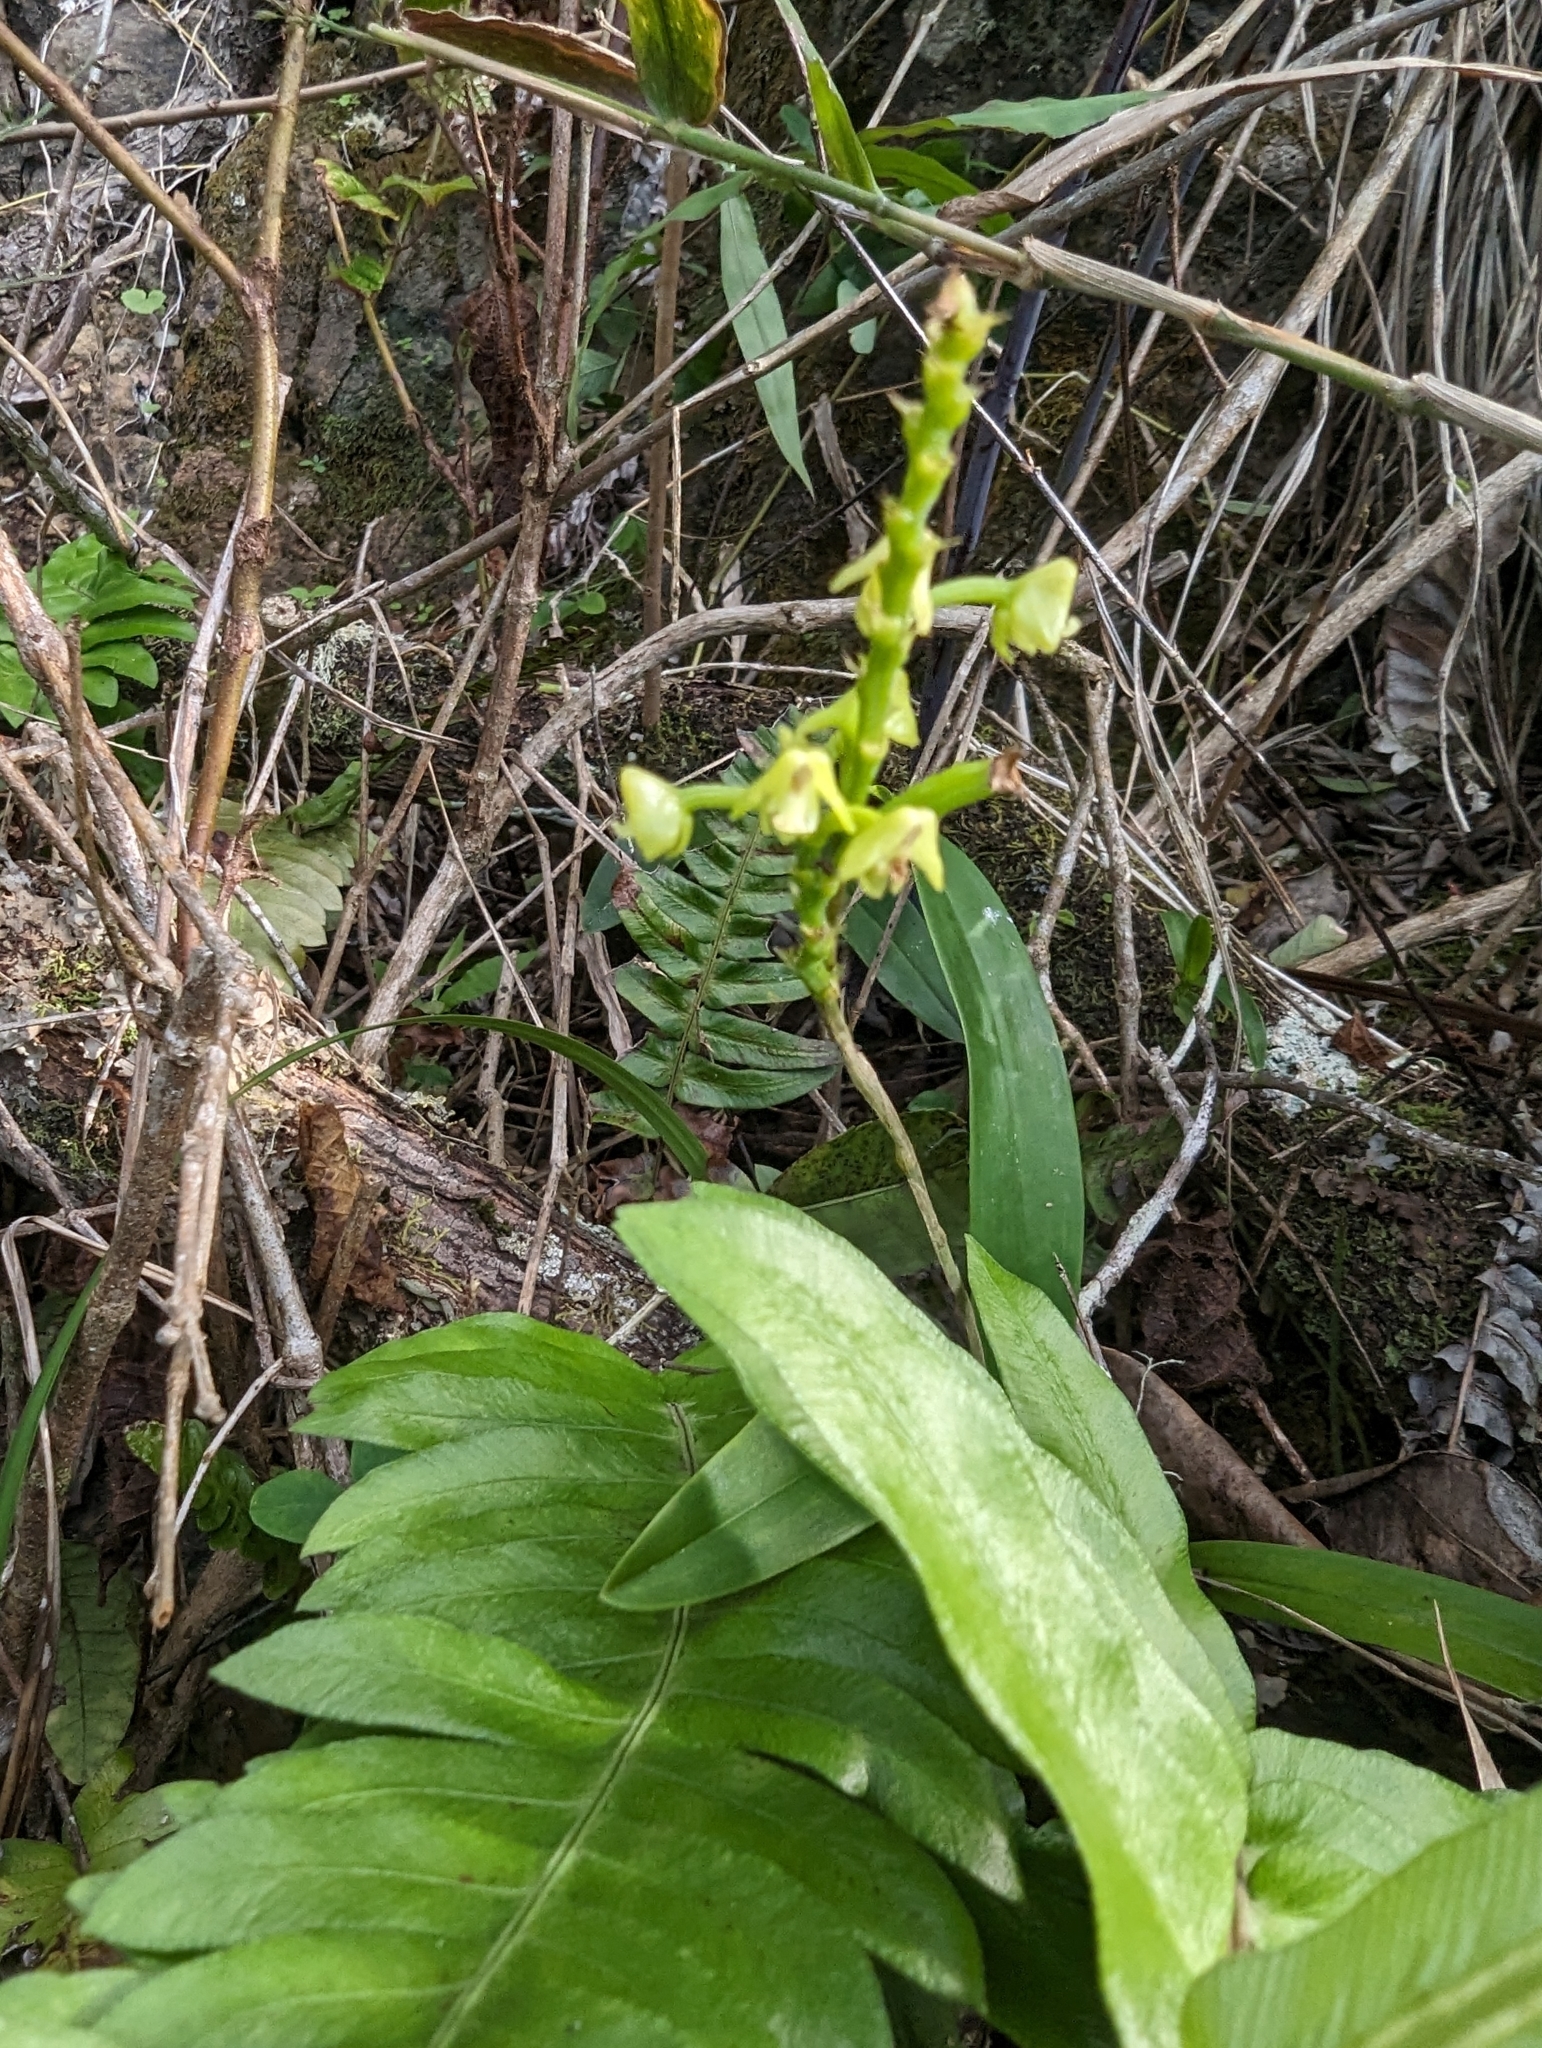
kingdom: Plantae
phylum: Tracheophyta
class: Liliopsida
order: Asparagales
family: Orchidaceae
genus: Polystachya
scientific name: Polystachya concreta
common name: Greater yellowspike orchid
